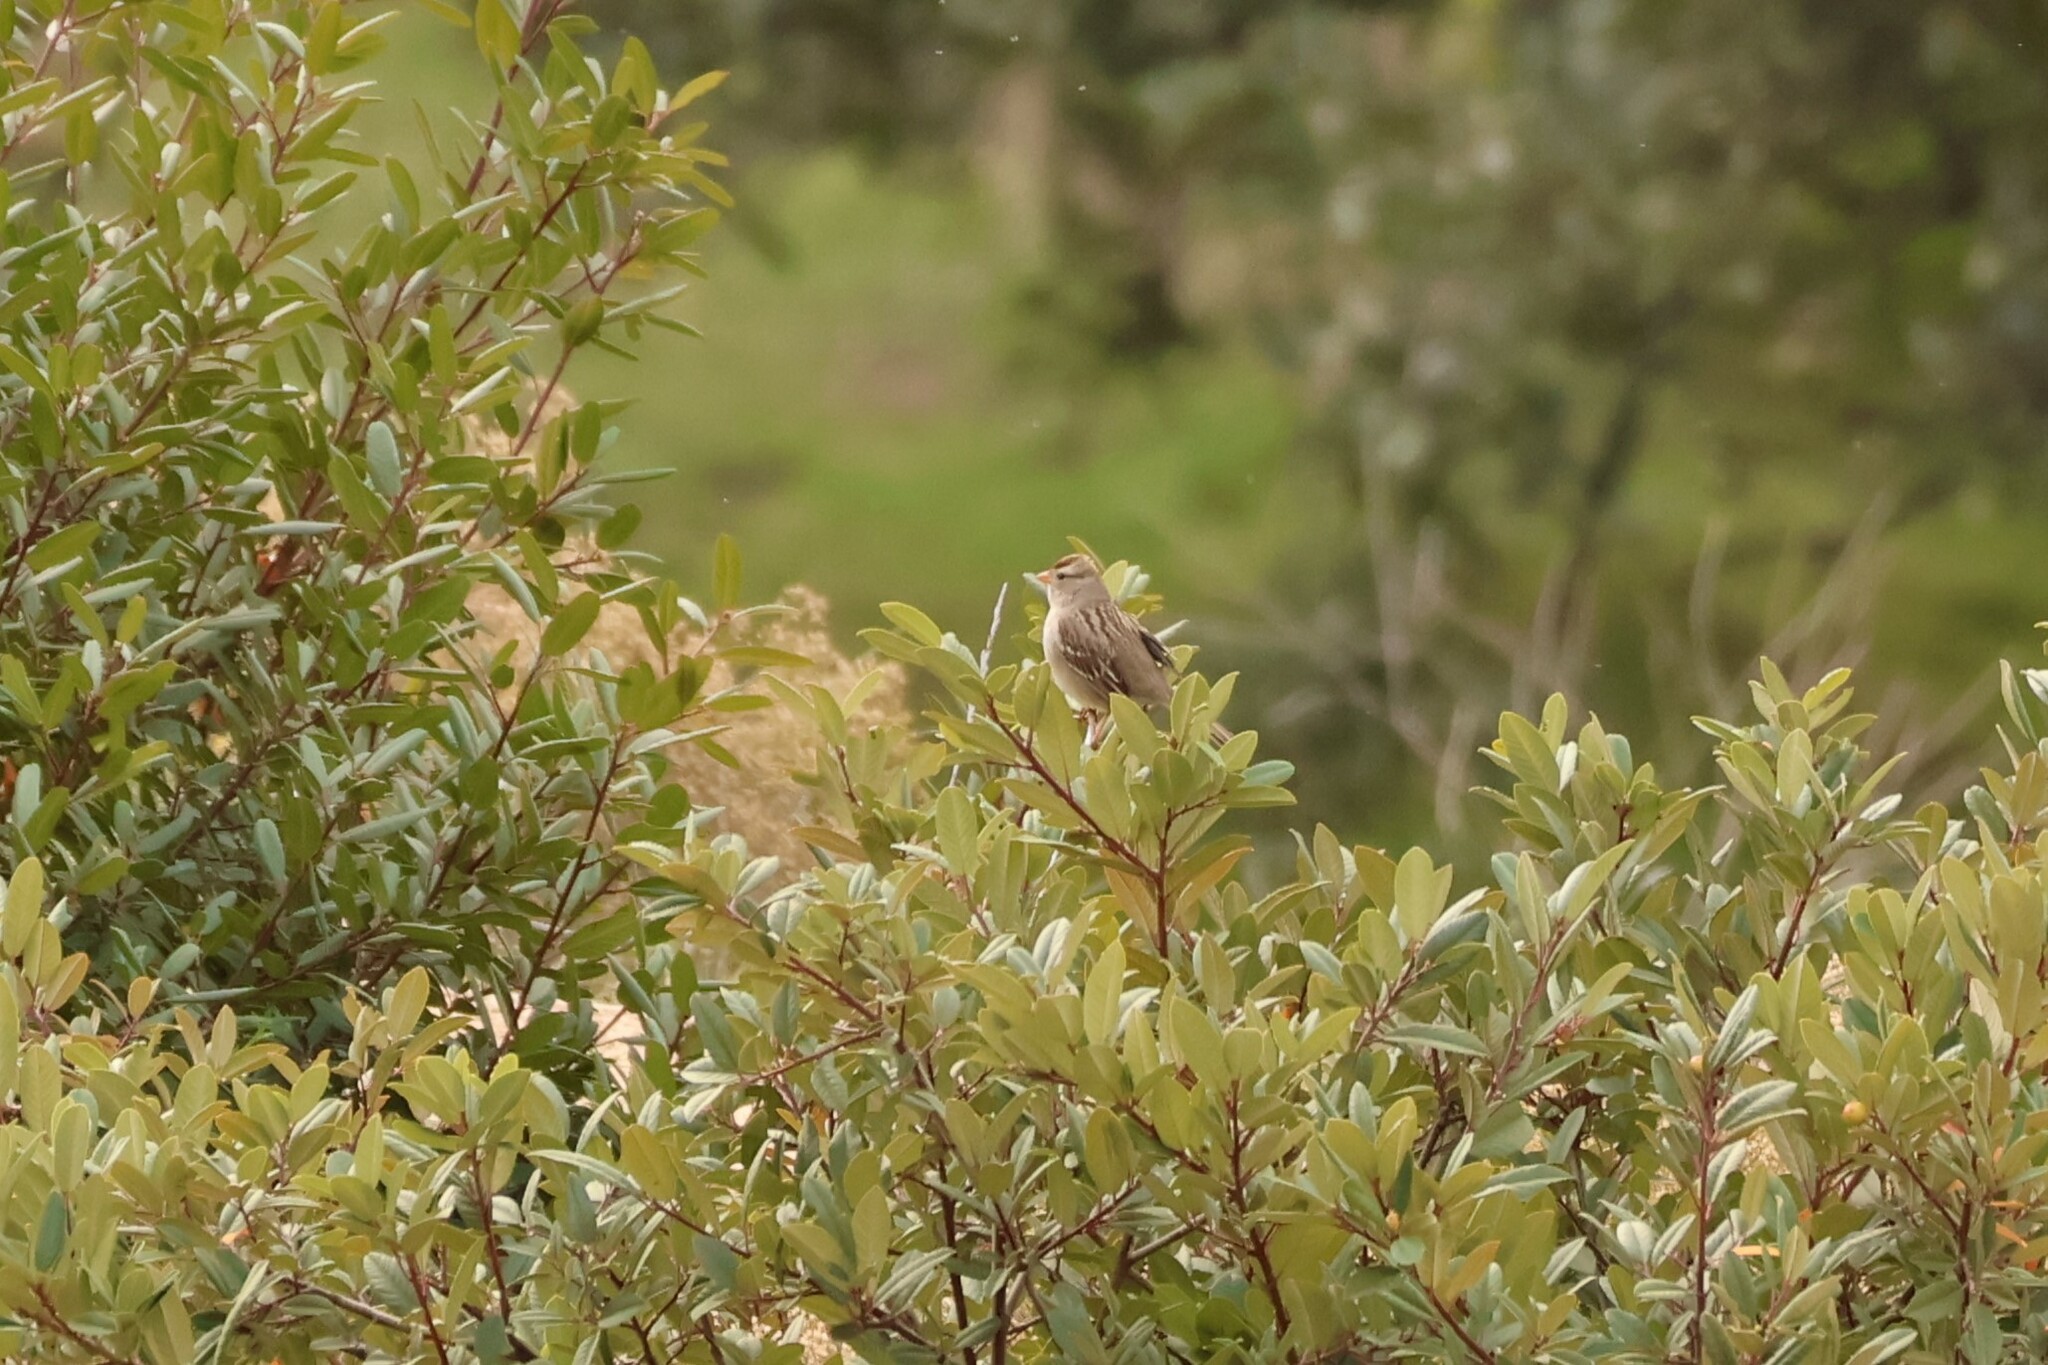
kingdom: Animalia
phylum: Chordata
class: Aves
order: Passeriformes
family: Passerellidae
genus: Zonotrichia
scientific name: Zonotrichia leucophrys
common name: White-crowned sparrow
